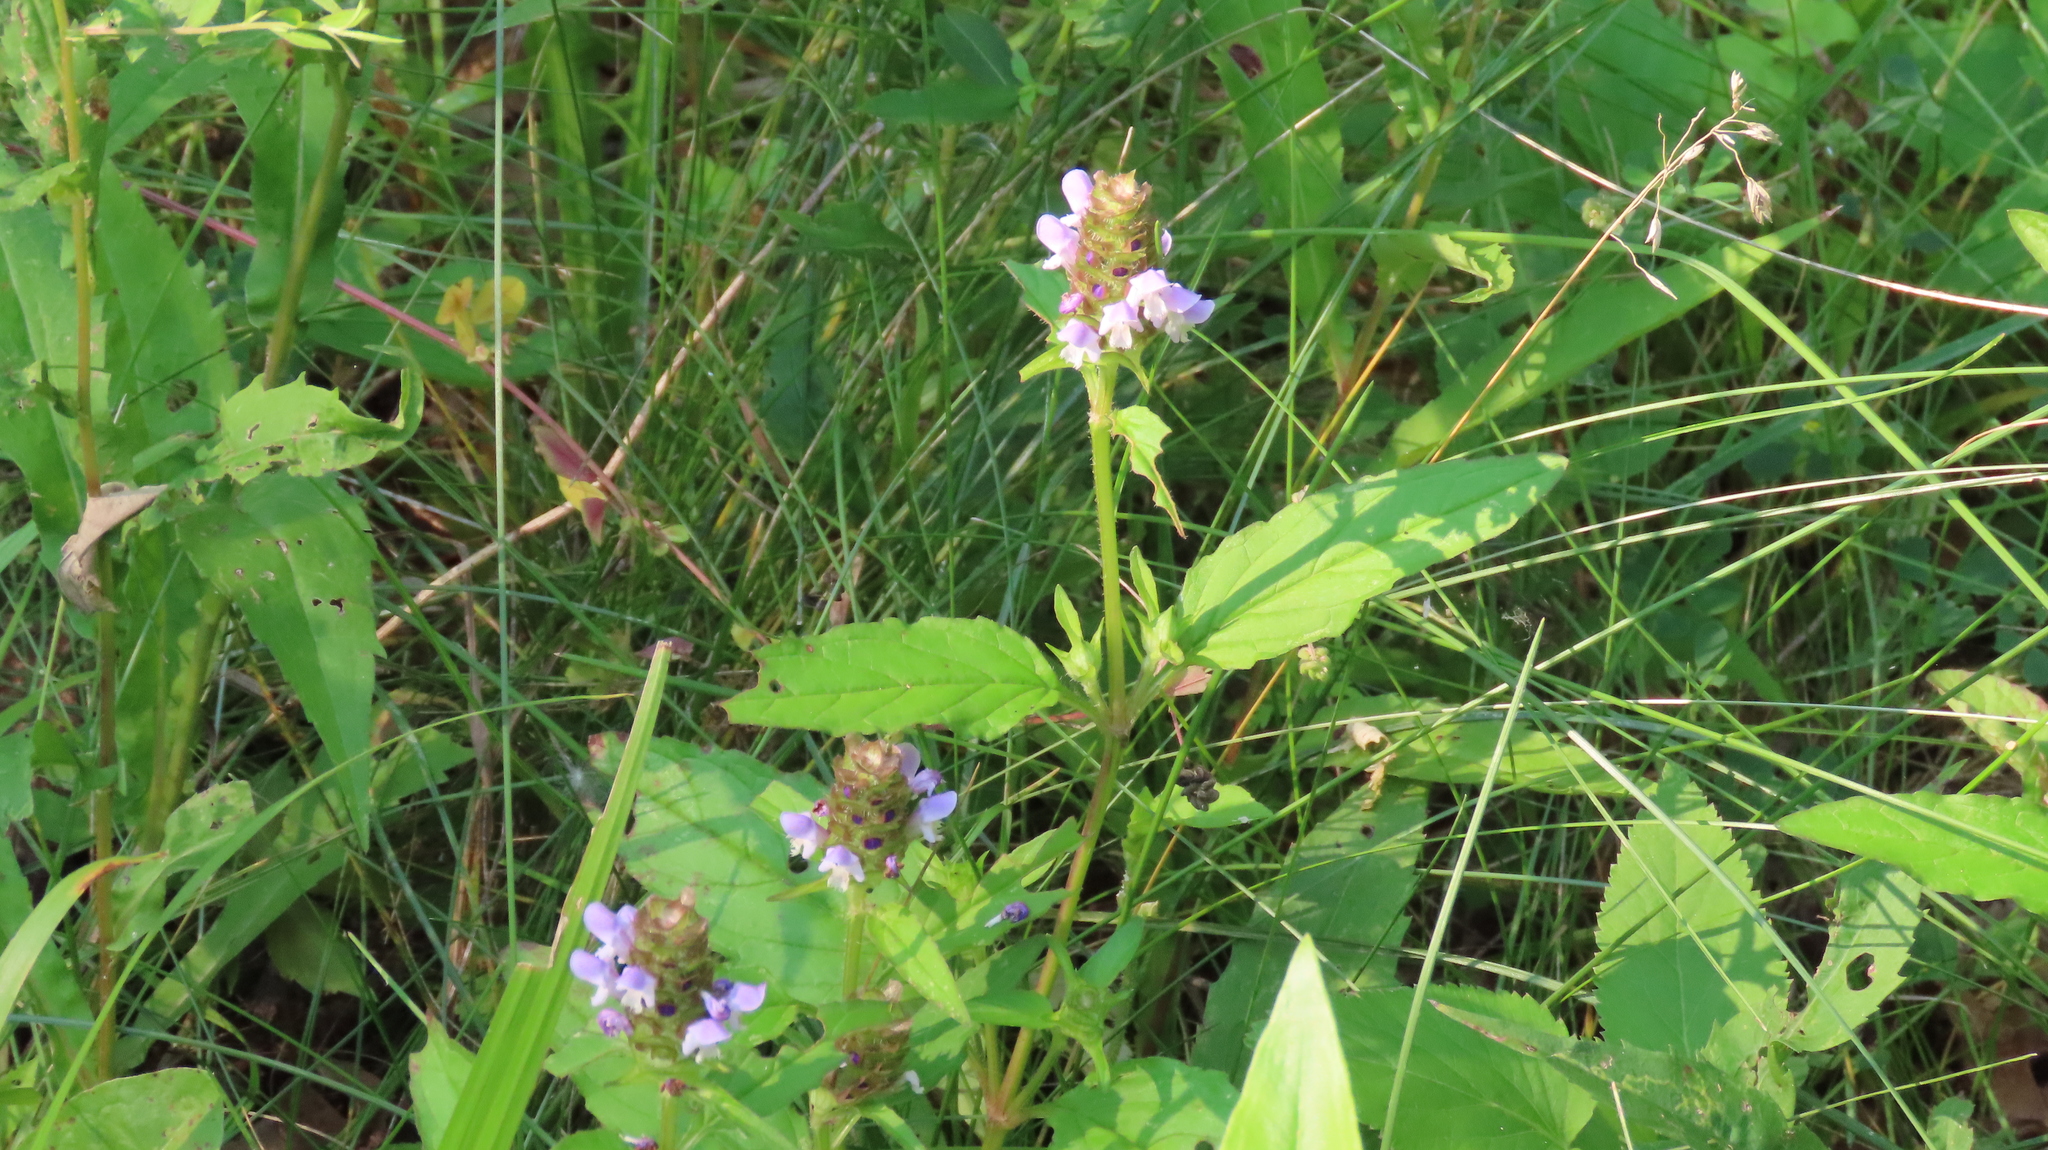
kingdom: Plantae
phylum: Tracheophyta
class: Magnoliopsida
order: Lamiales
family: Lamiaceae
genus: Prunella
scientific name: Prunella vulgaris
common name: Heal-all
